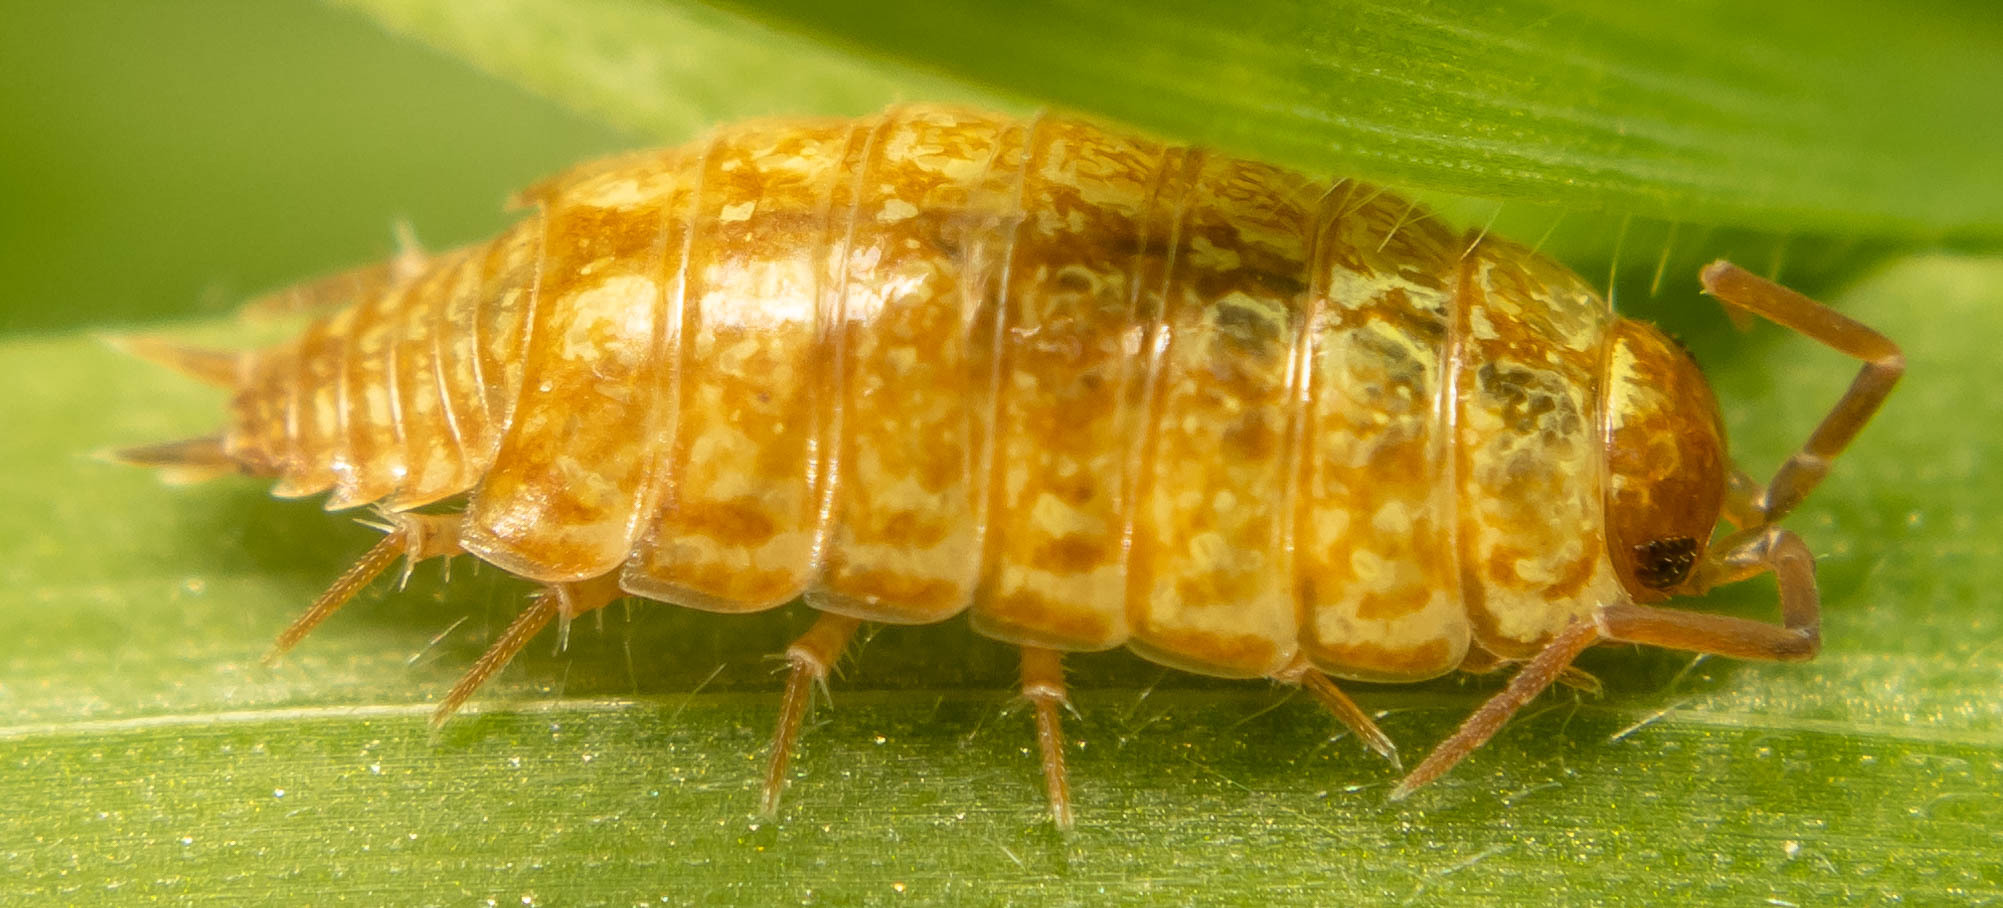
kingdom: Animalia
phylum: Arthropoda
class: Malacostraca
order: Isopoda
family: Philosciidae
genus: Philoscia
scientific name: Philoscia muscorum
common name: Common striped woodlouse
